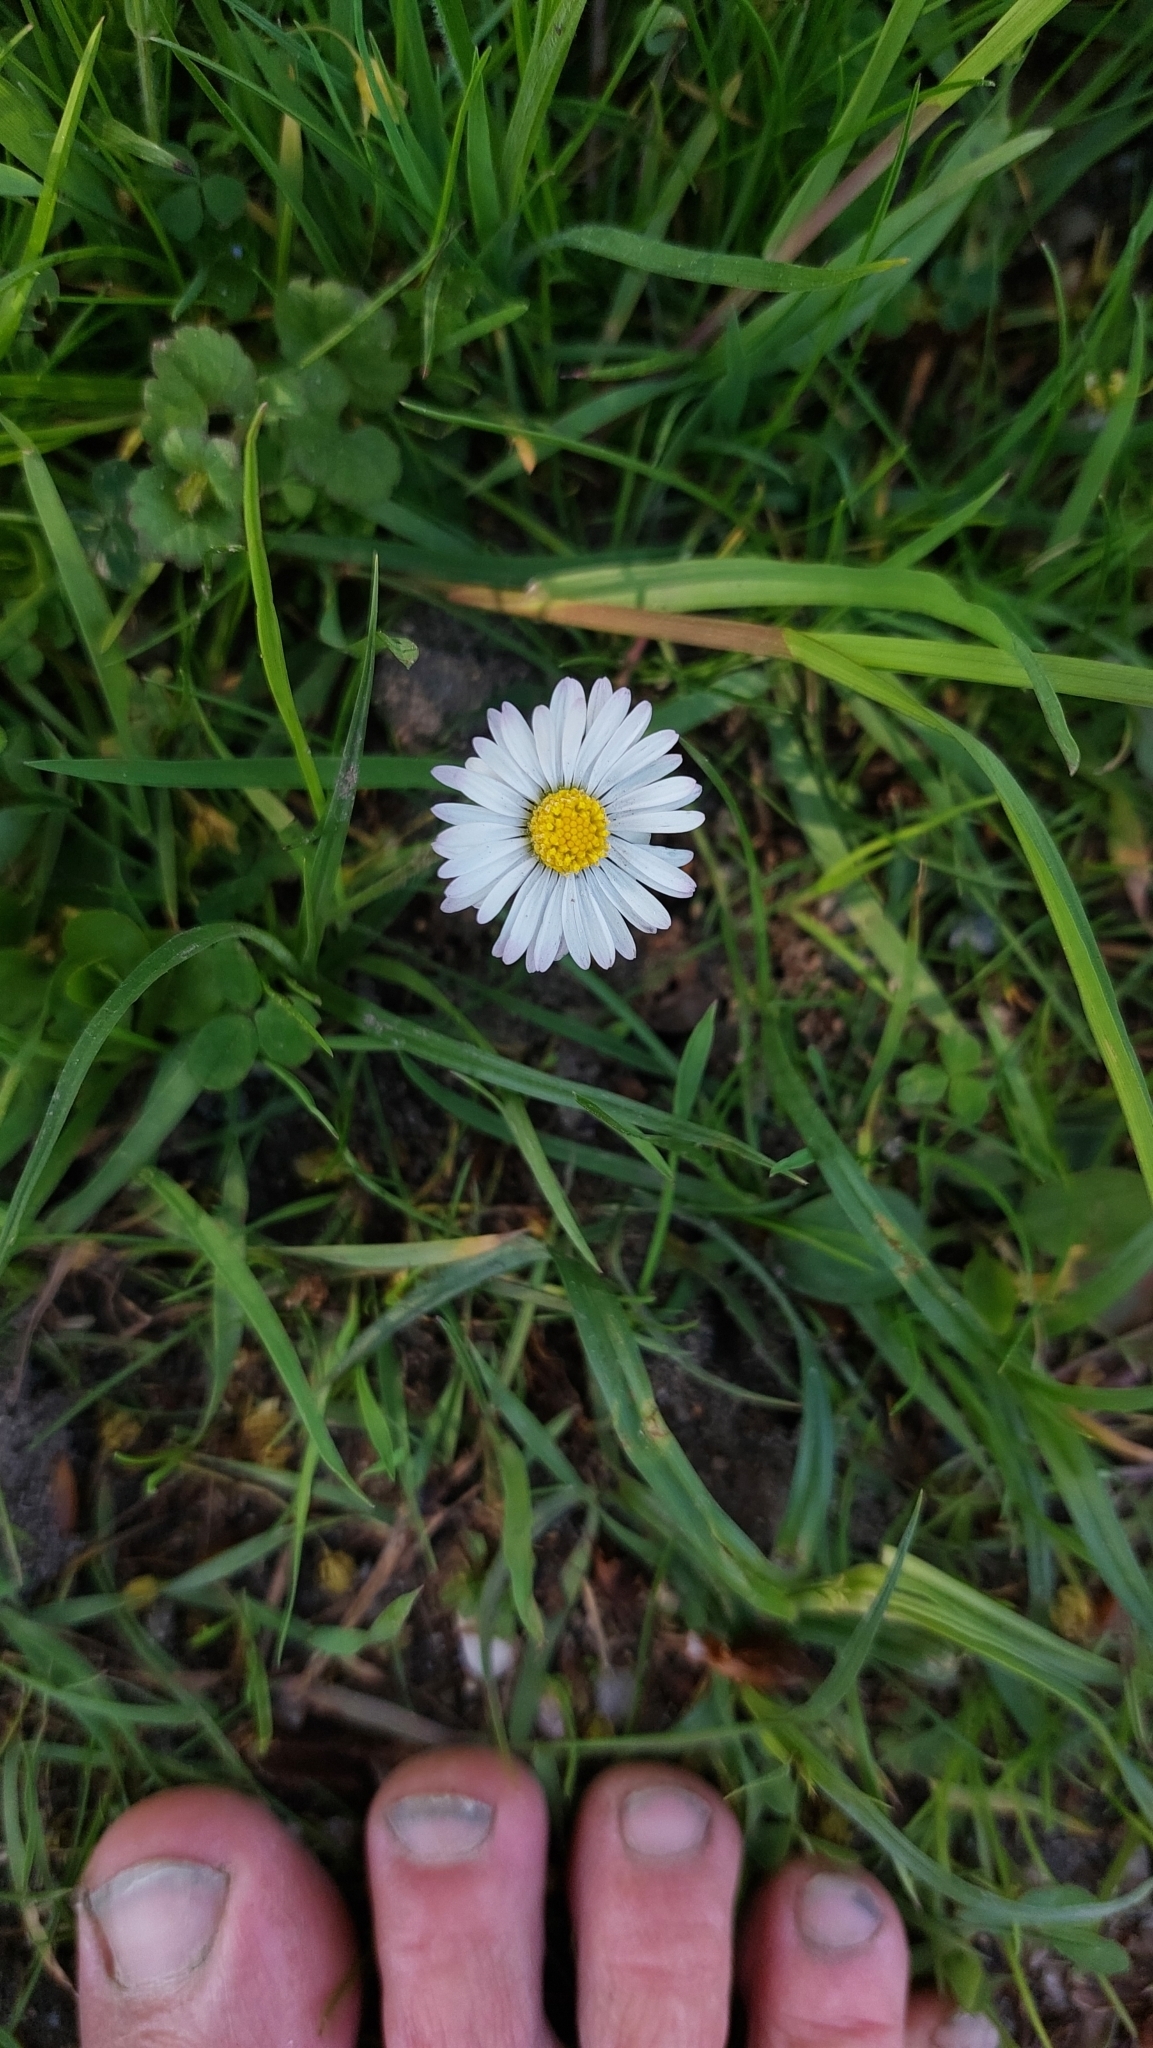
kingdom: Plantae
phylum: Tracheophyta
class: Magnoliopsida
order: Asterales
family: Asteraceae
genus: Bellis
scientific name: Bellis perennis
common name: Lawndaisy
